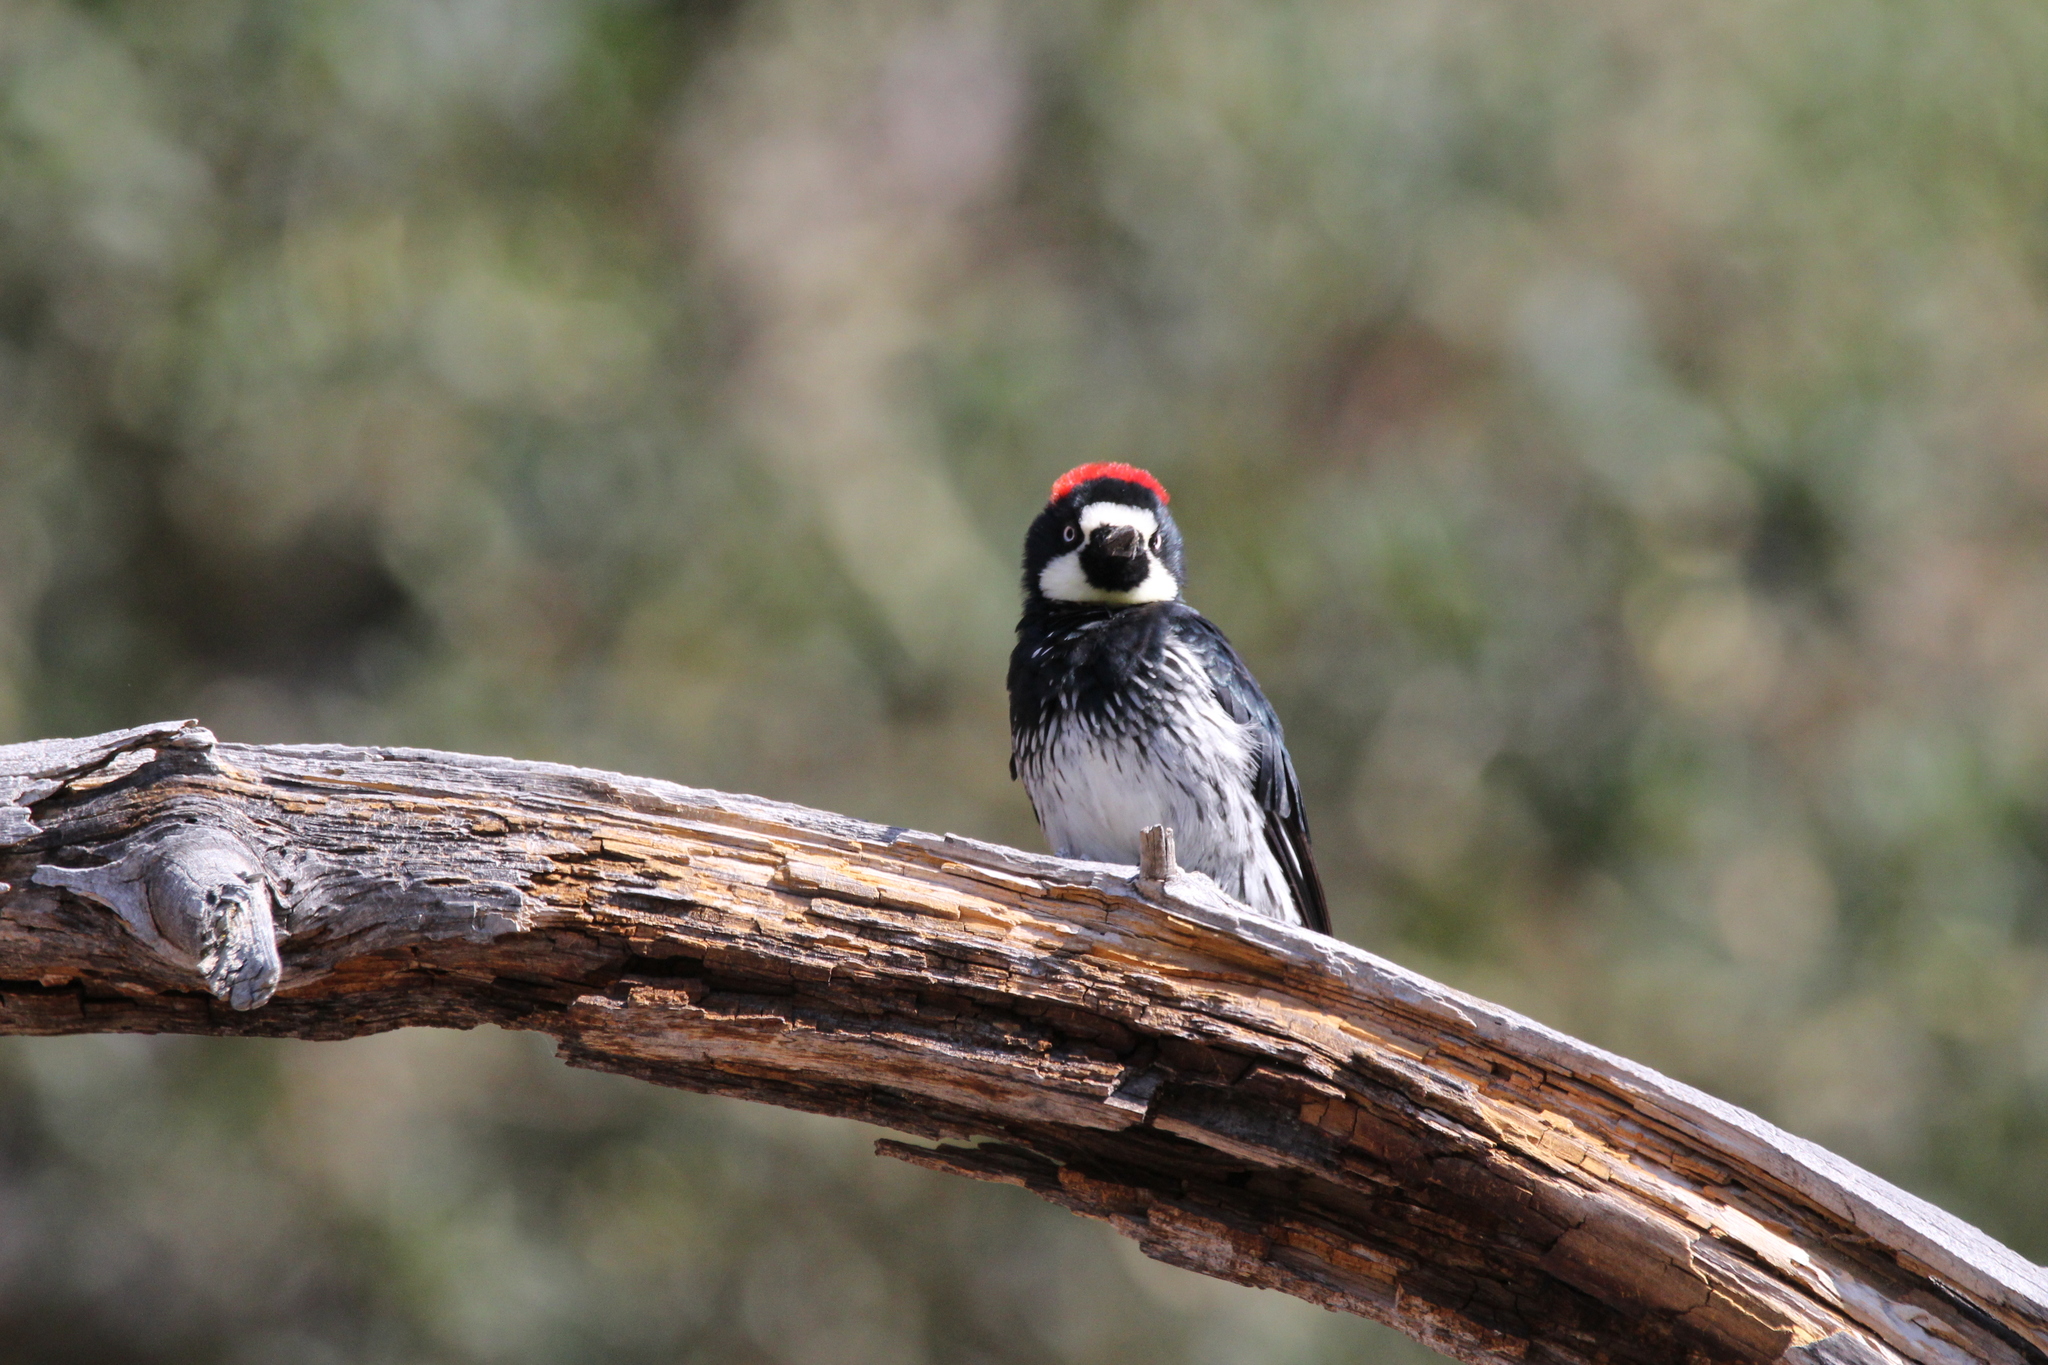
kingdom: Animalia
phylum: Chordata
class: Aves
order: Piciformes
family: Picidae
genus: Melanerpes
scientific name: Melanerpes formicivorus
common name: Acorn woodpecker
